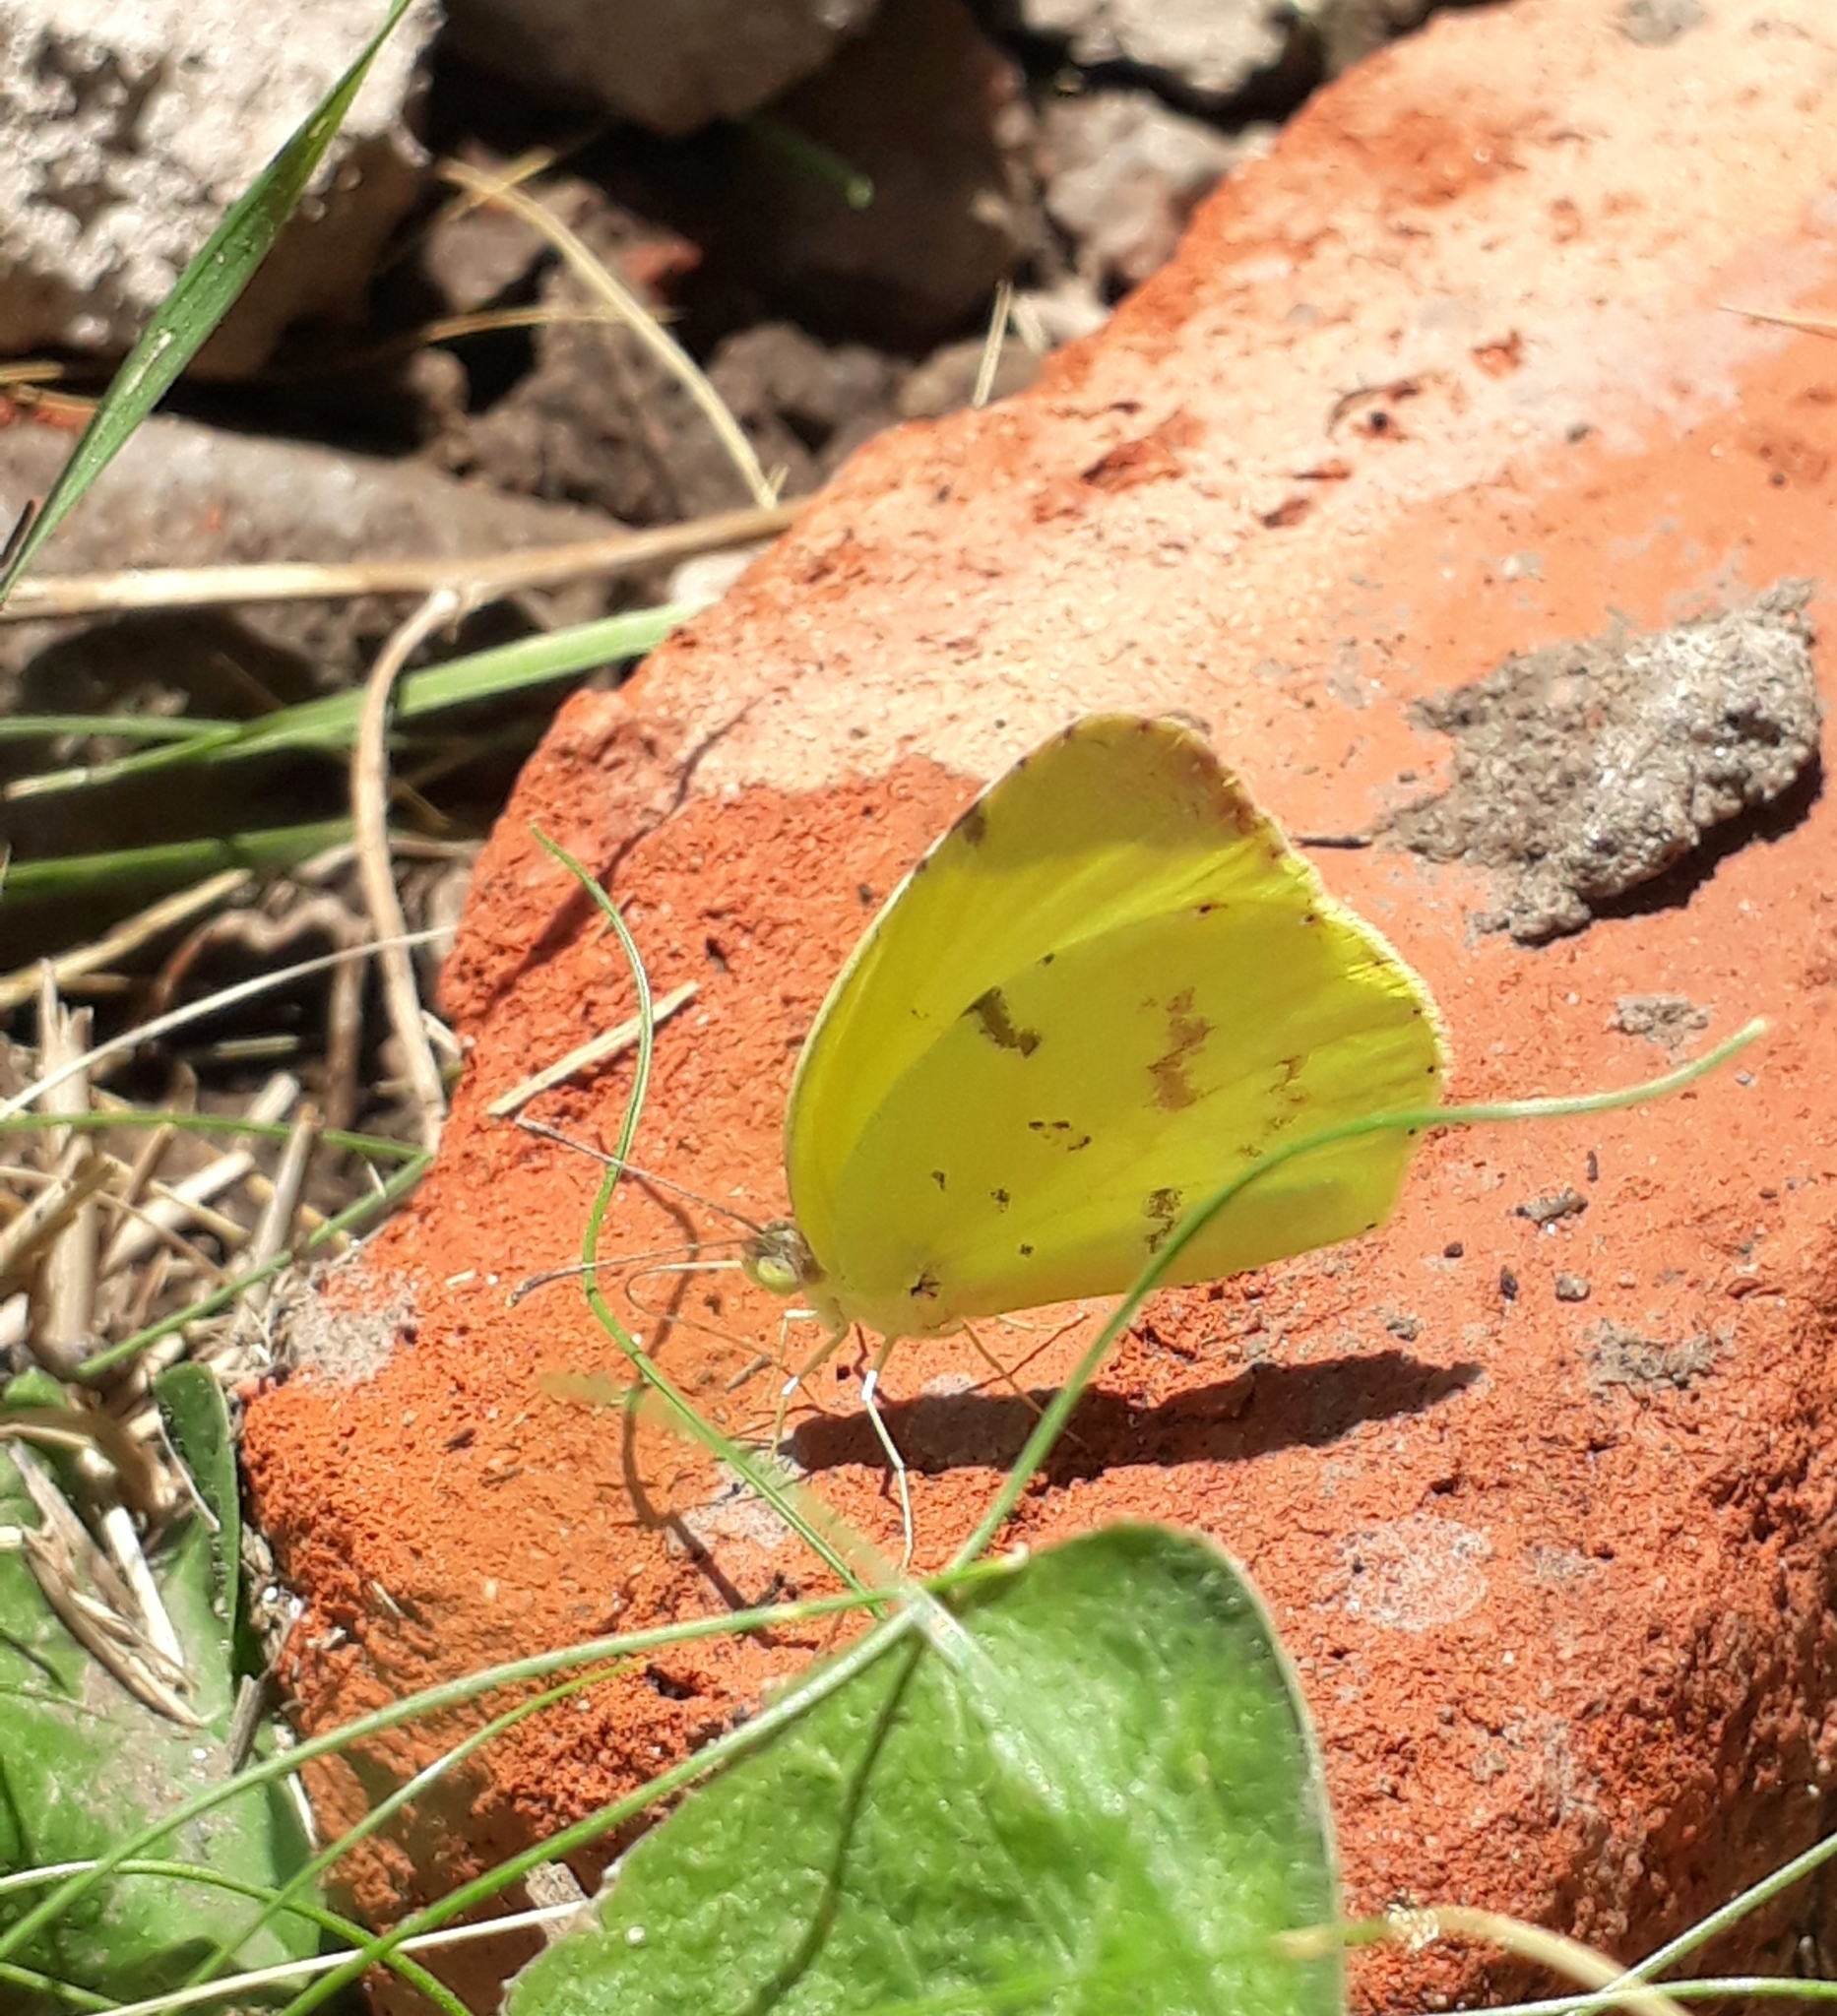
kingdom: Animalia
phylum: Arthropoda
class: Insecta
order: Lepidoptera
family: Pieridae
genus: Teriocolias
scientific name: Teriocolias
